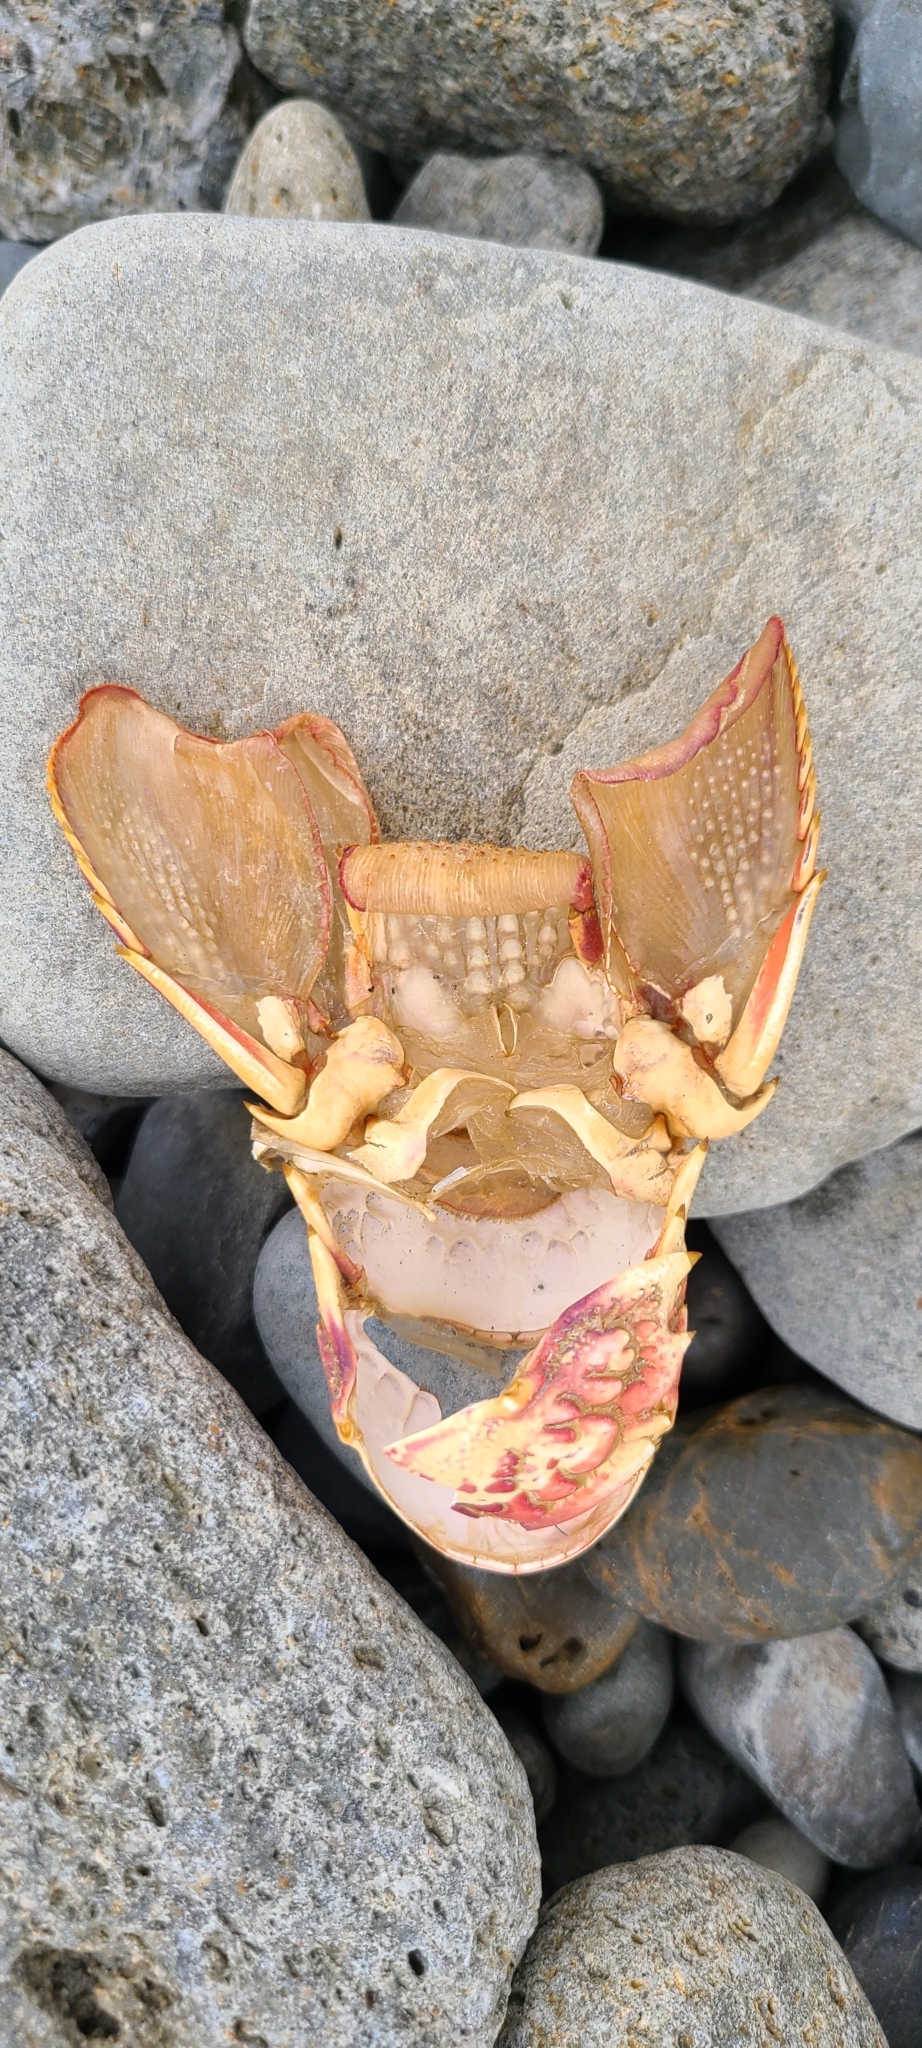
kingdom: Animalia
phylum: Arthropoda
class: Malacostraca
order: Decapoda
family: Palinuridae
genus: Jasus
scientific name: Jasus edwardsii
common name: Red rock lobster
